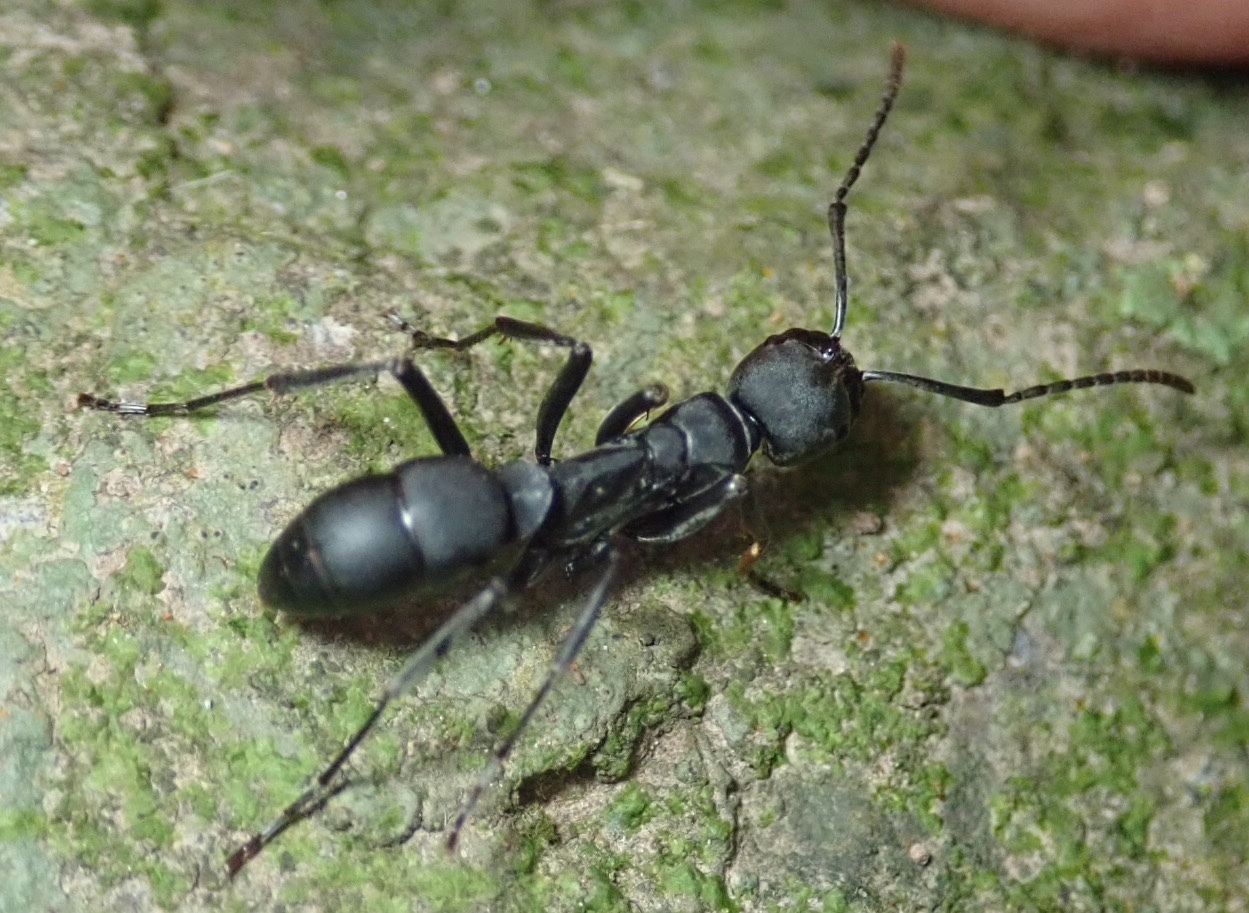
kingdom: Animalia
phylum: Arthropoda
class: Insecta
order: Hymenoptera
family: Formicidae
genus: Hagensia
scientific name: Hagensia
